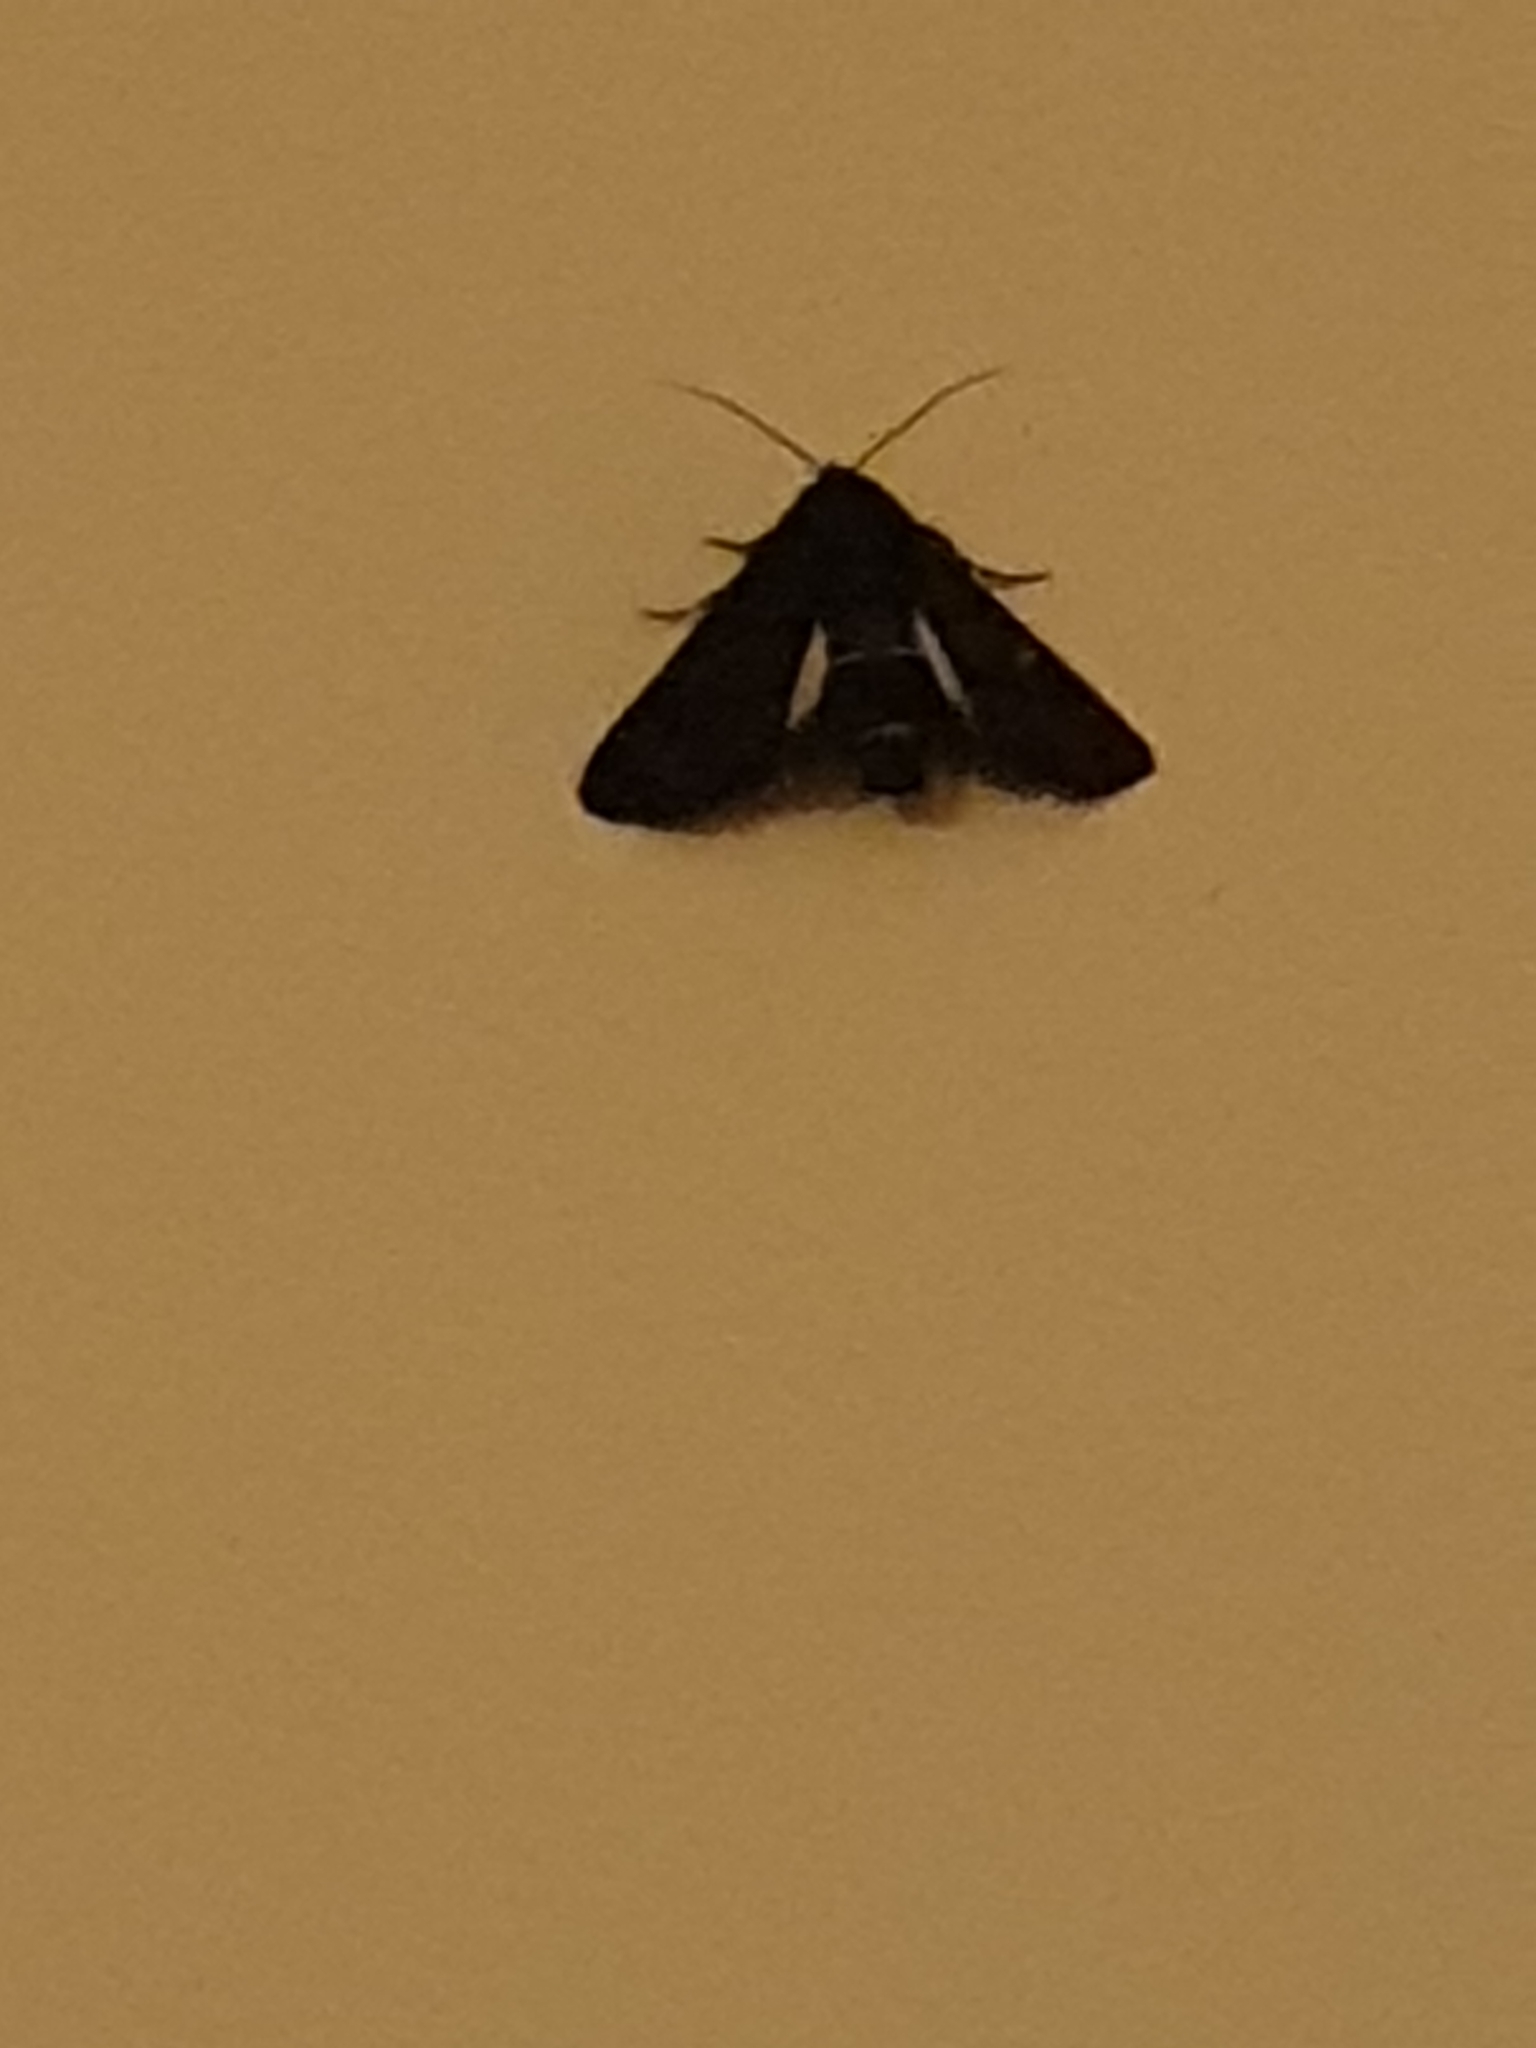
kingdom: Animalia
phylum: Arthropoda
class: Insecta
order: Lepidoptera
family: Euteliidae
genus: Pataeta
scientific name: Pataeta carbo
